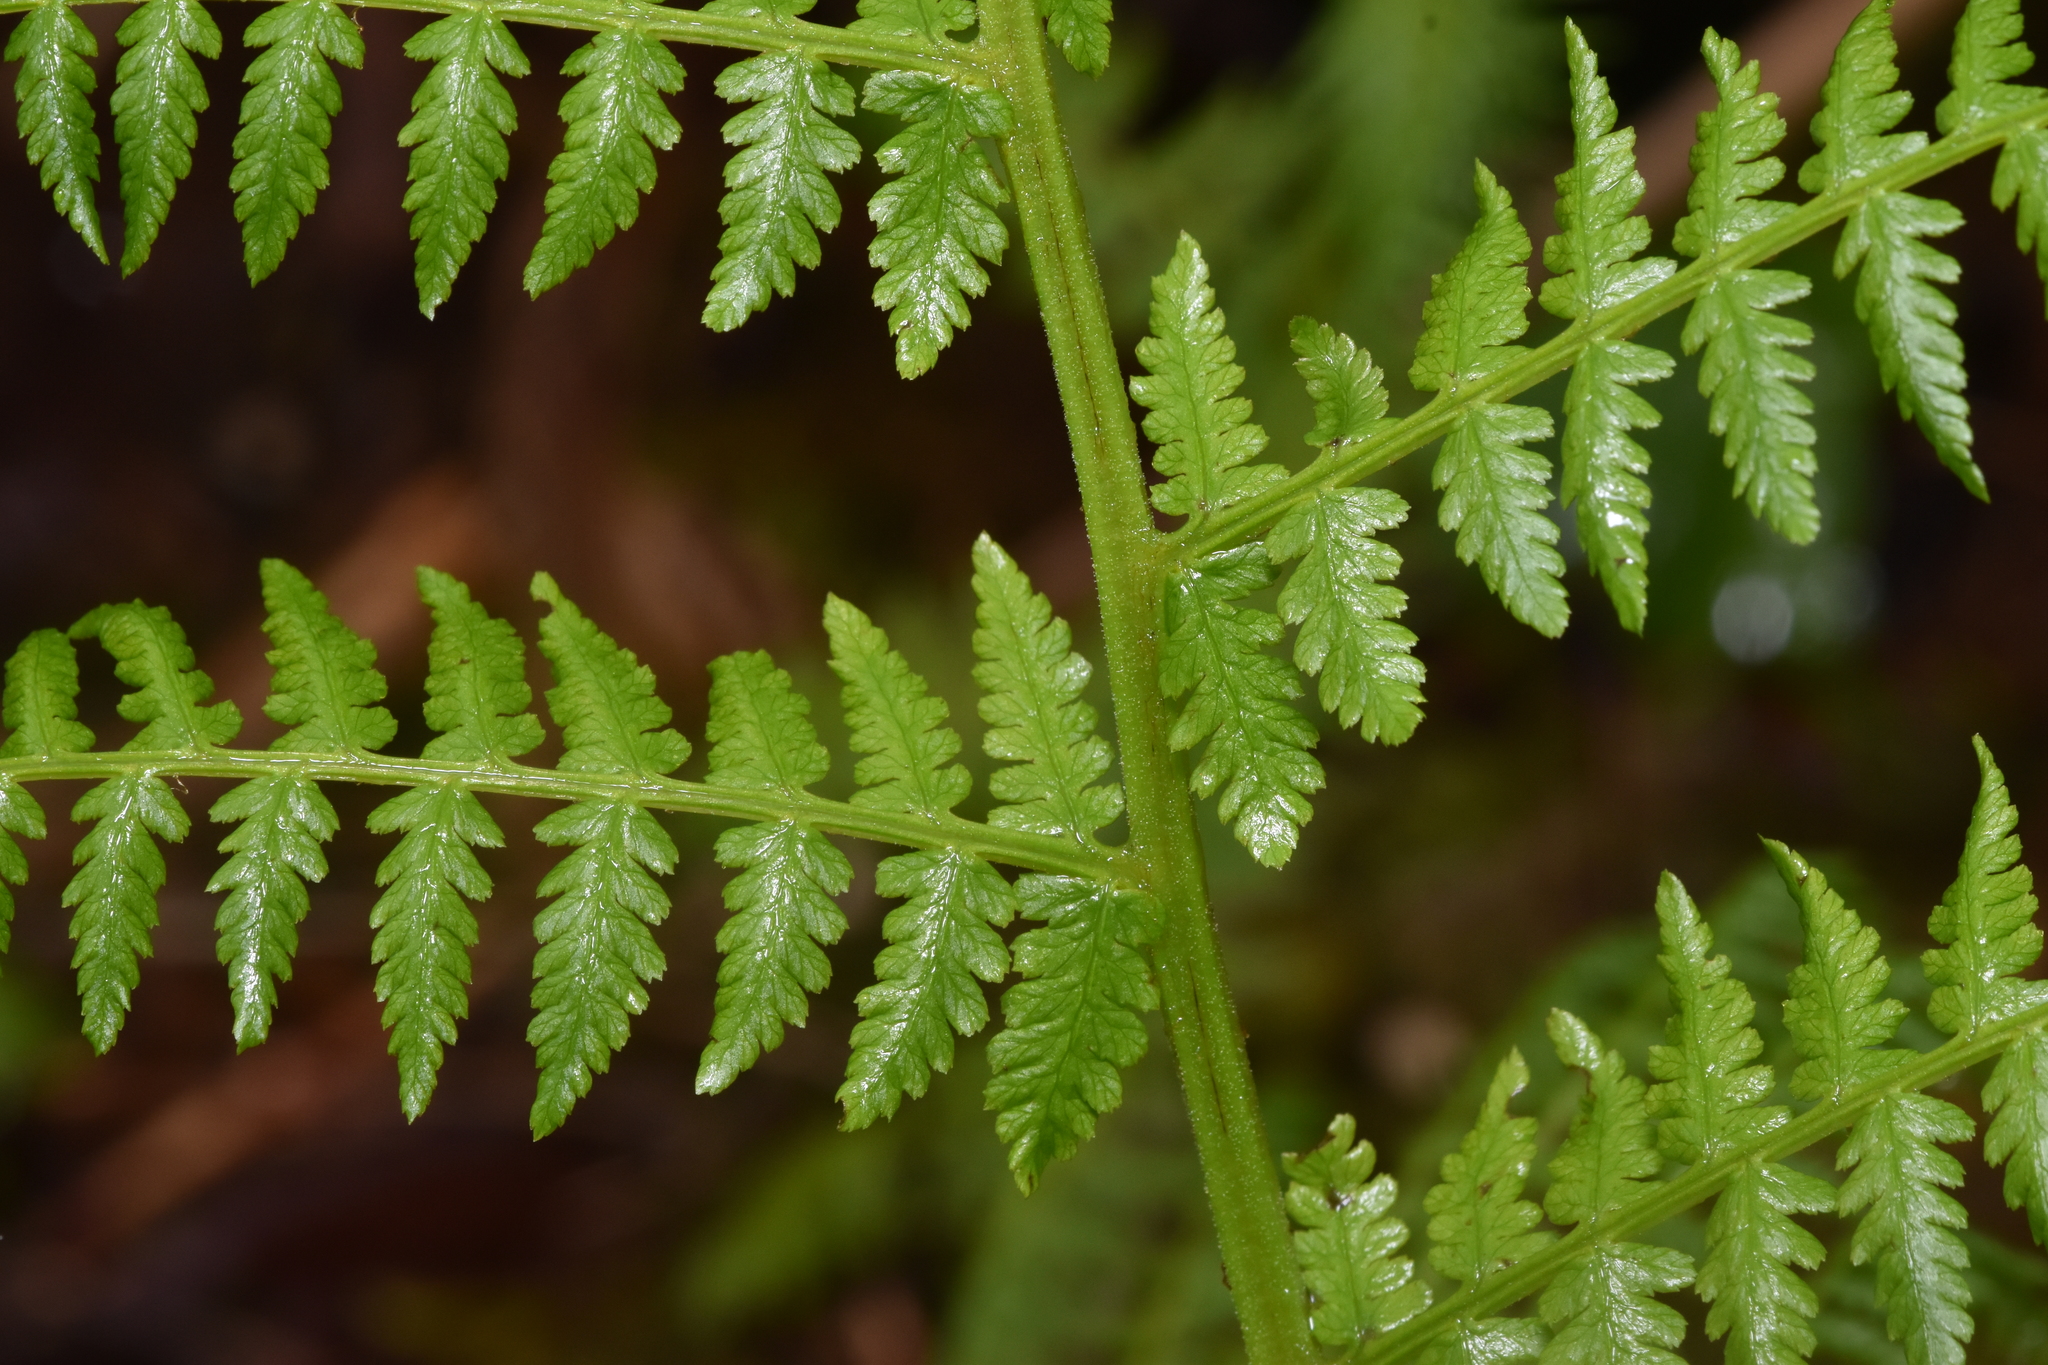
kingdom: Plantae
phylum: Tracheophyta
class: Polypodiopsida
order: Polypodiales
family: Athyriaceae
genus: Athyrium
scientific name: Athyrium filix-femina
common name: Lady fern
